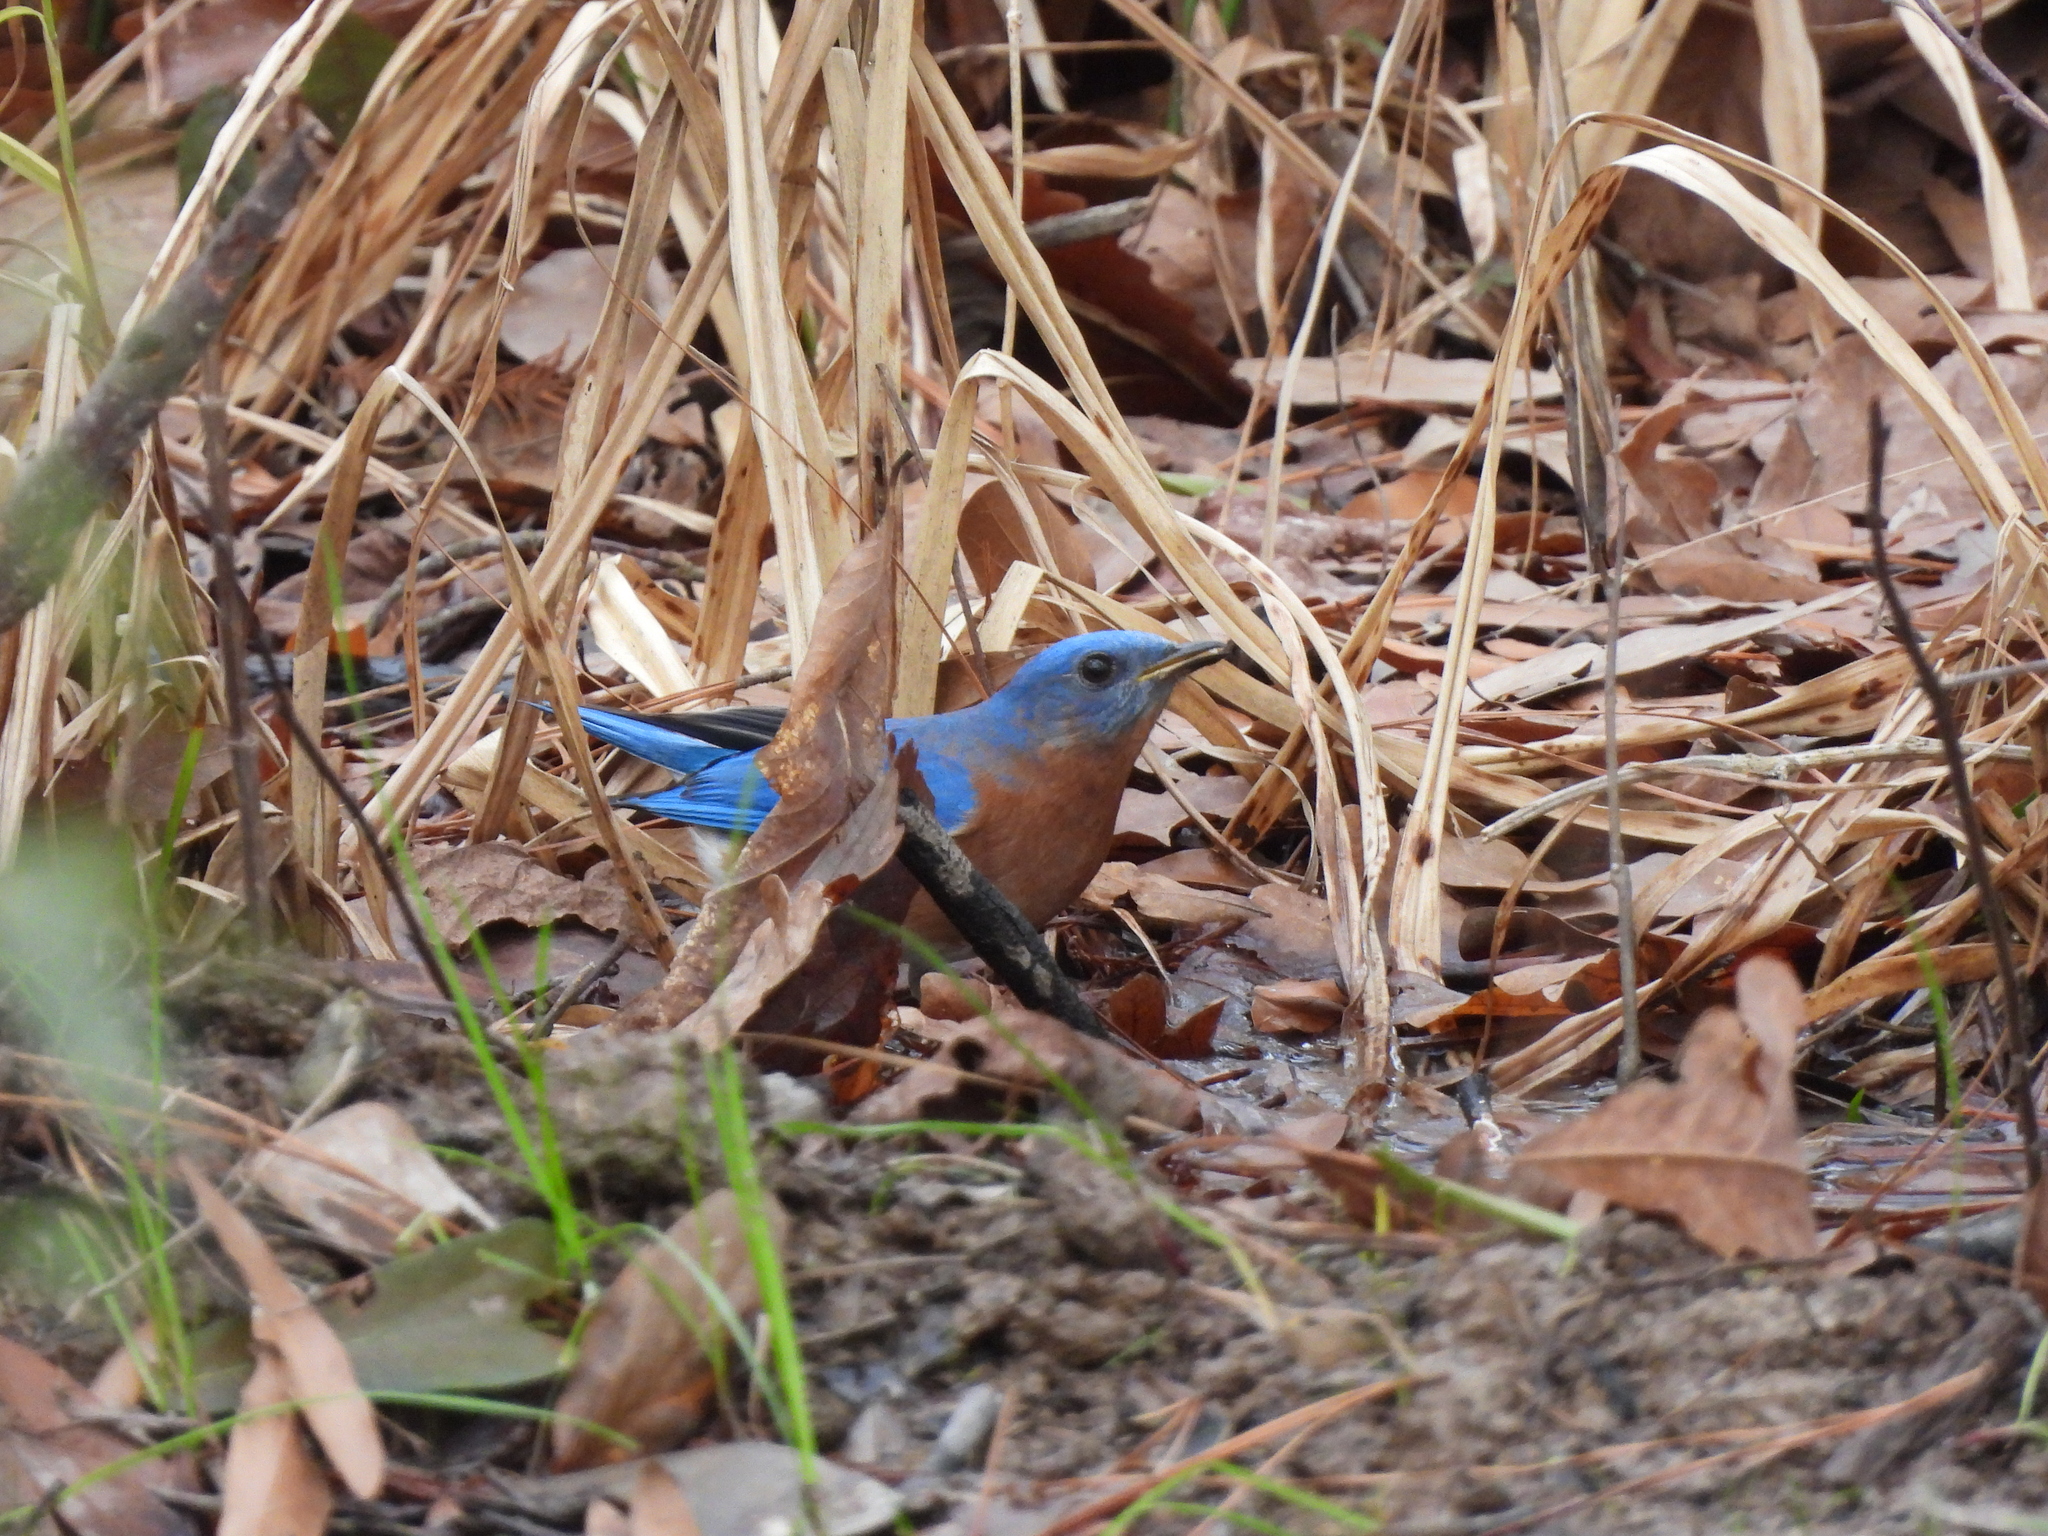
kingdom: Animalia
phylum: Chordata
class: Aves
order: Passeriformes
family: Turdidae
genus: Sialia
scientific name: Sialia sialis
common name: Eastern bluebird
